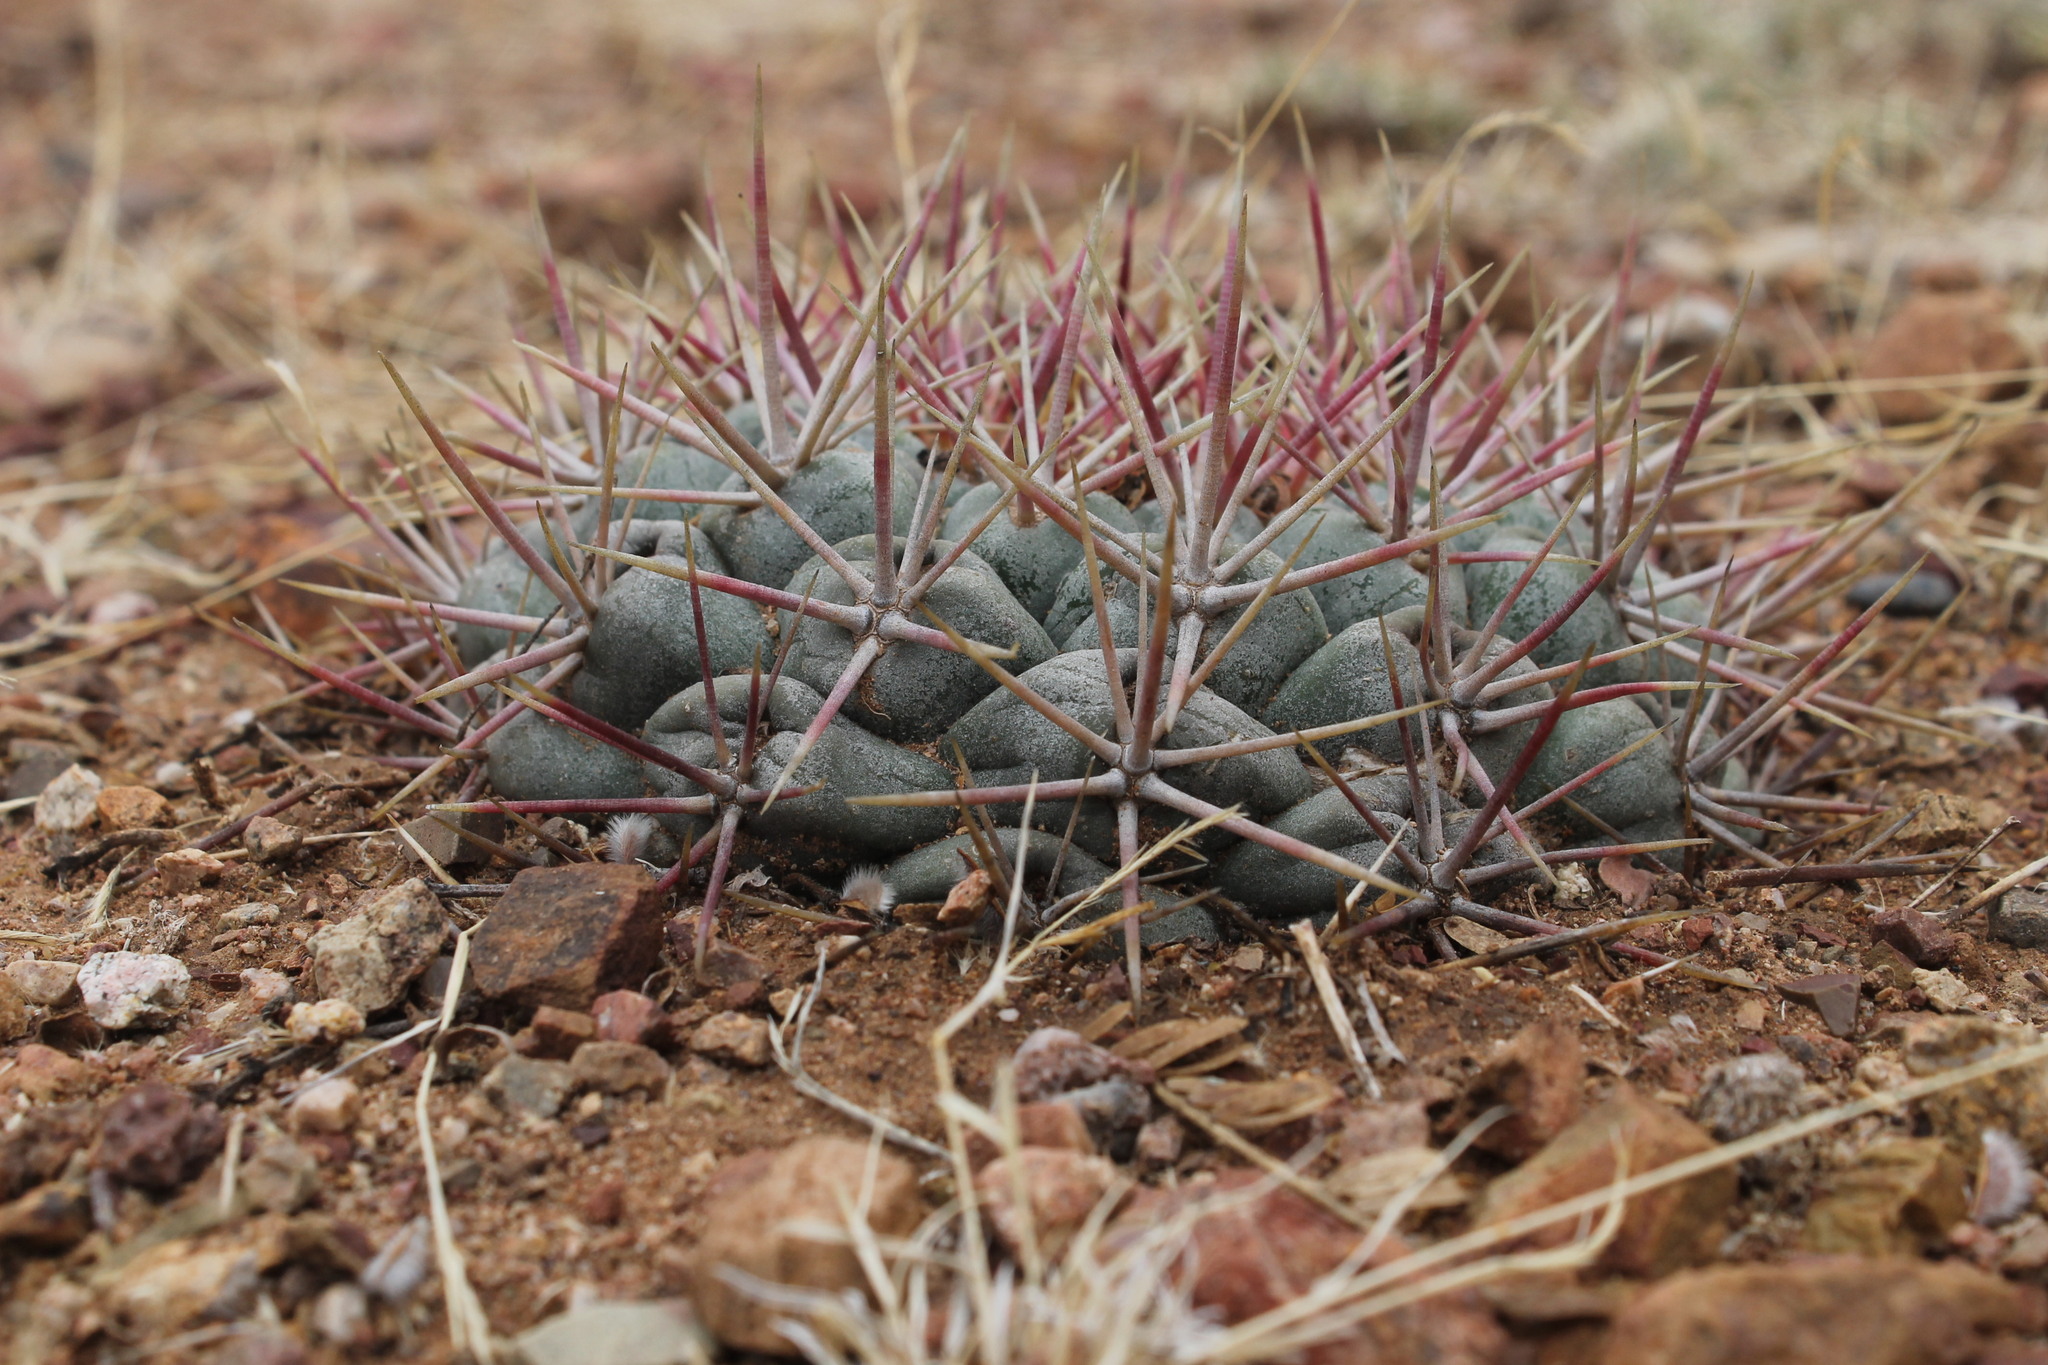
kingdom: Plantae
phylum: Tracheophyta
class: Magnoliopsida
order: Caryophyllales
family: Cactaceae
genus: Thelocactus
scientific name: Thelocactus hexaedrophorus
